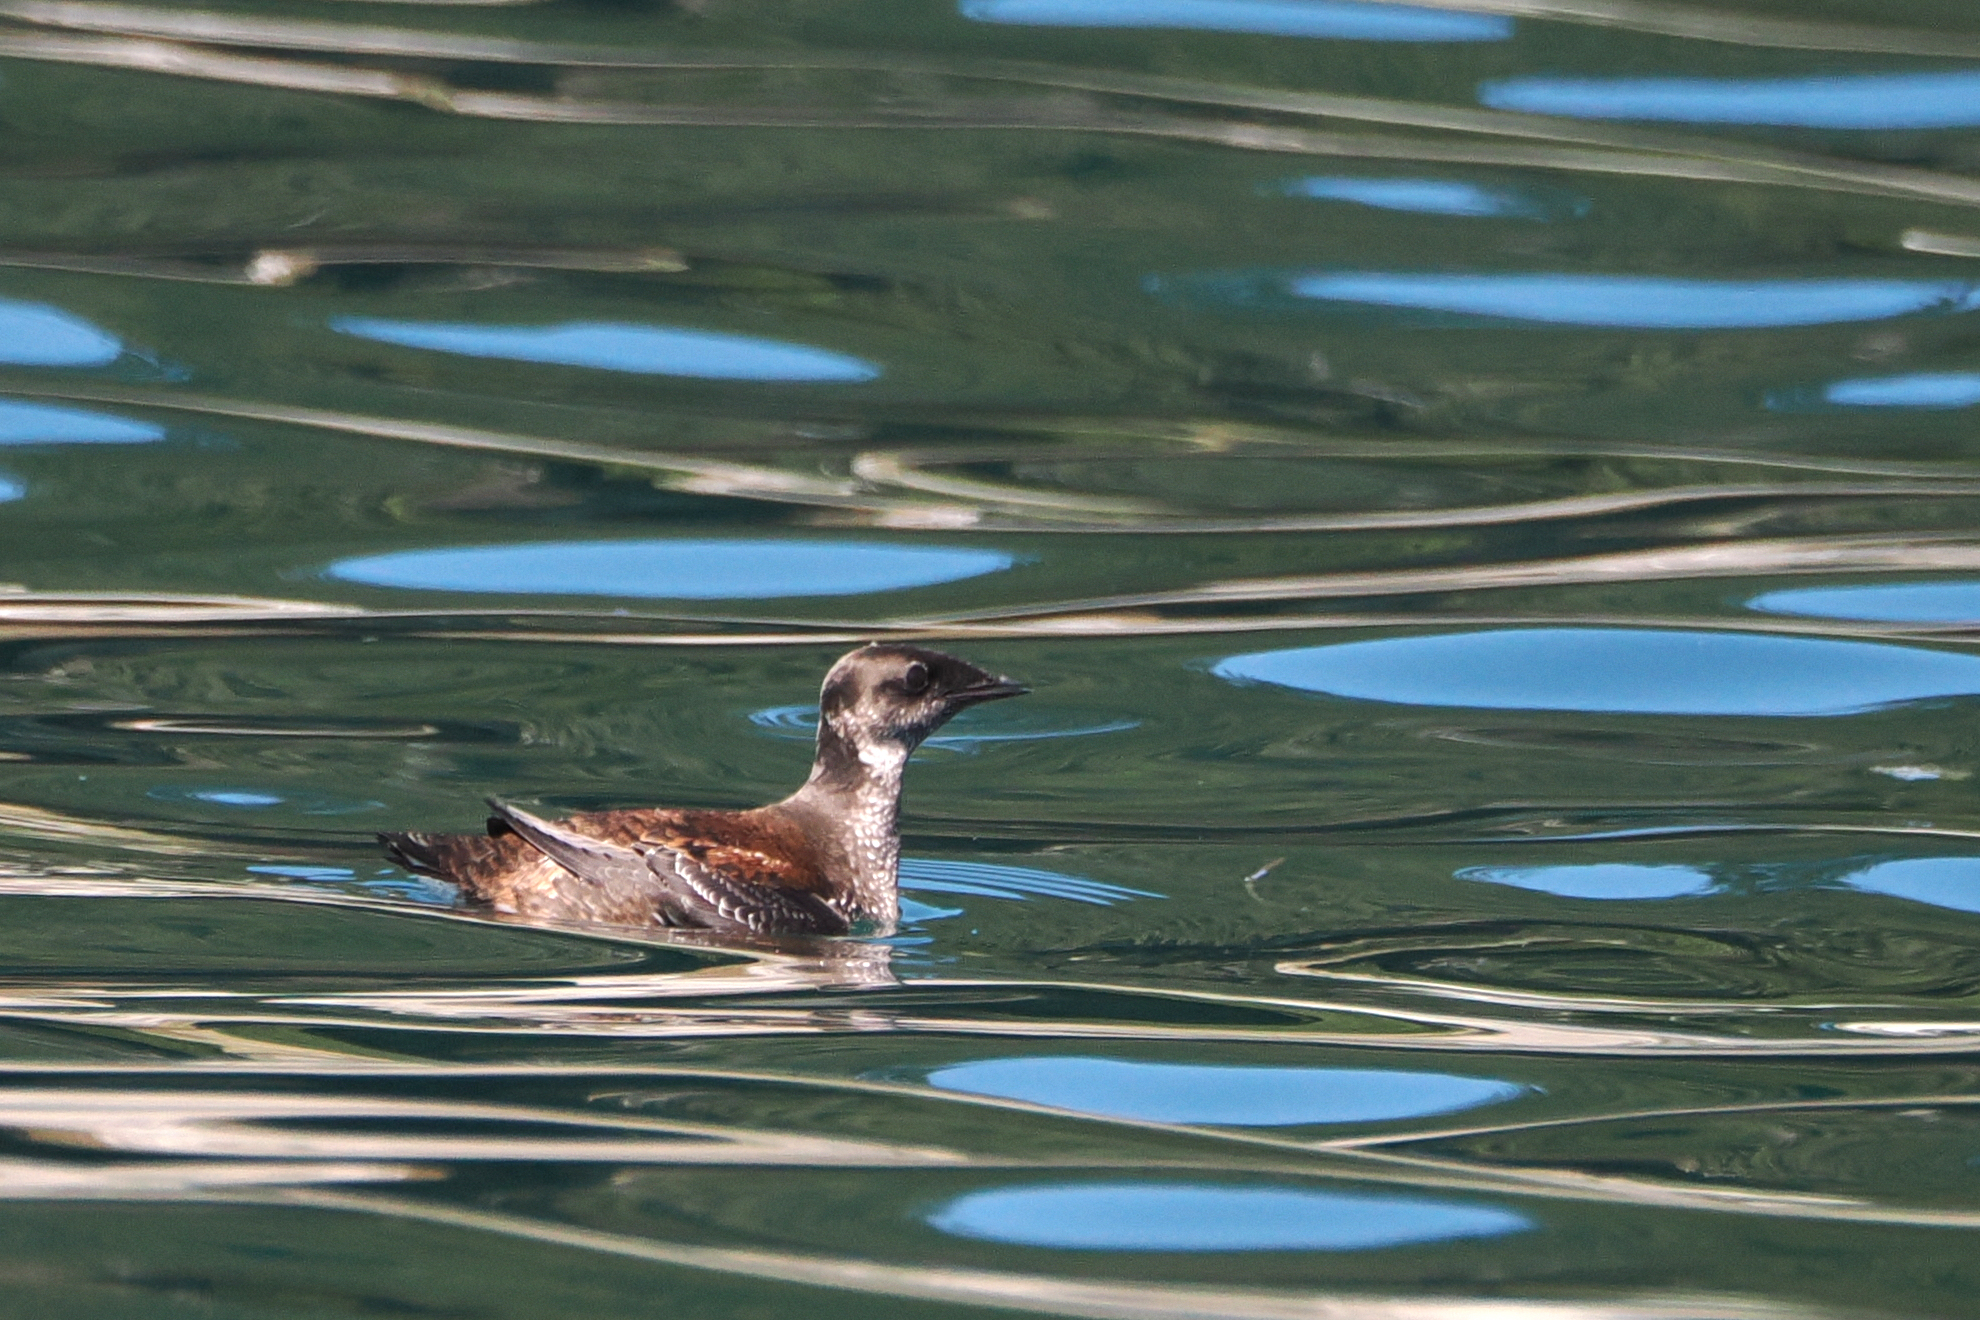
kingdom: Animalia
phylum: Chordata
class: Aves
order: Charadriiformes
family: Alcidae
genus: Brachyramphus
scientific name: Brachyramphus marmoratus
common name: Marbled murrelet
